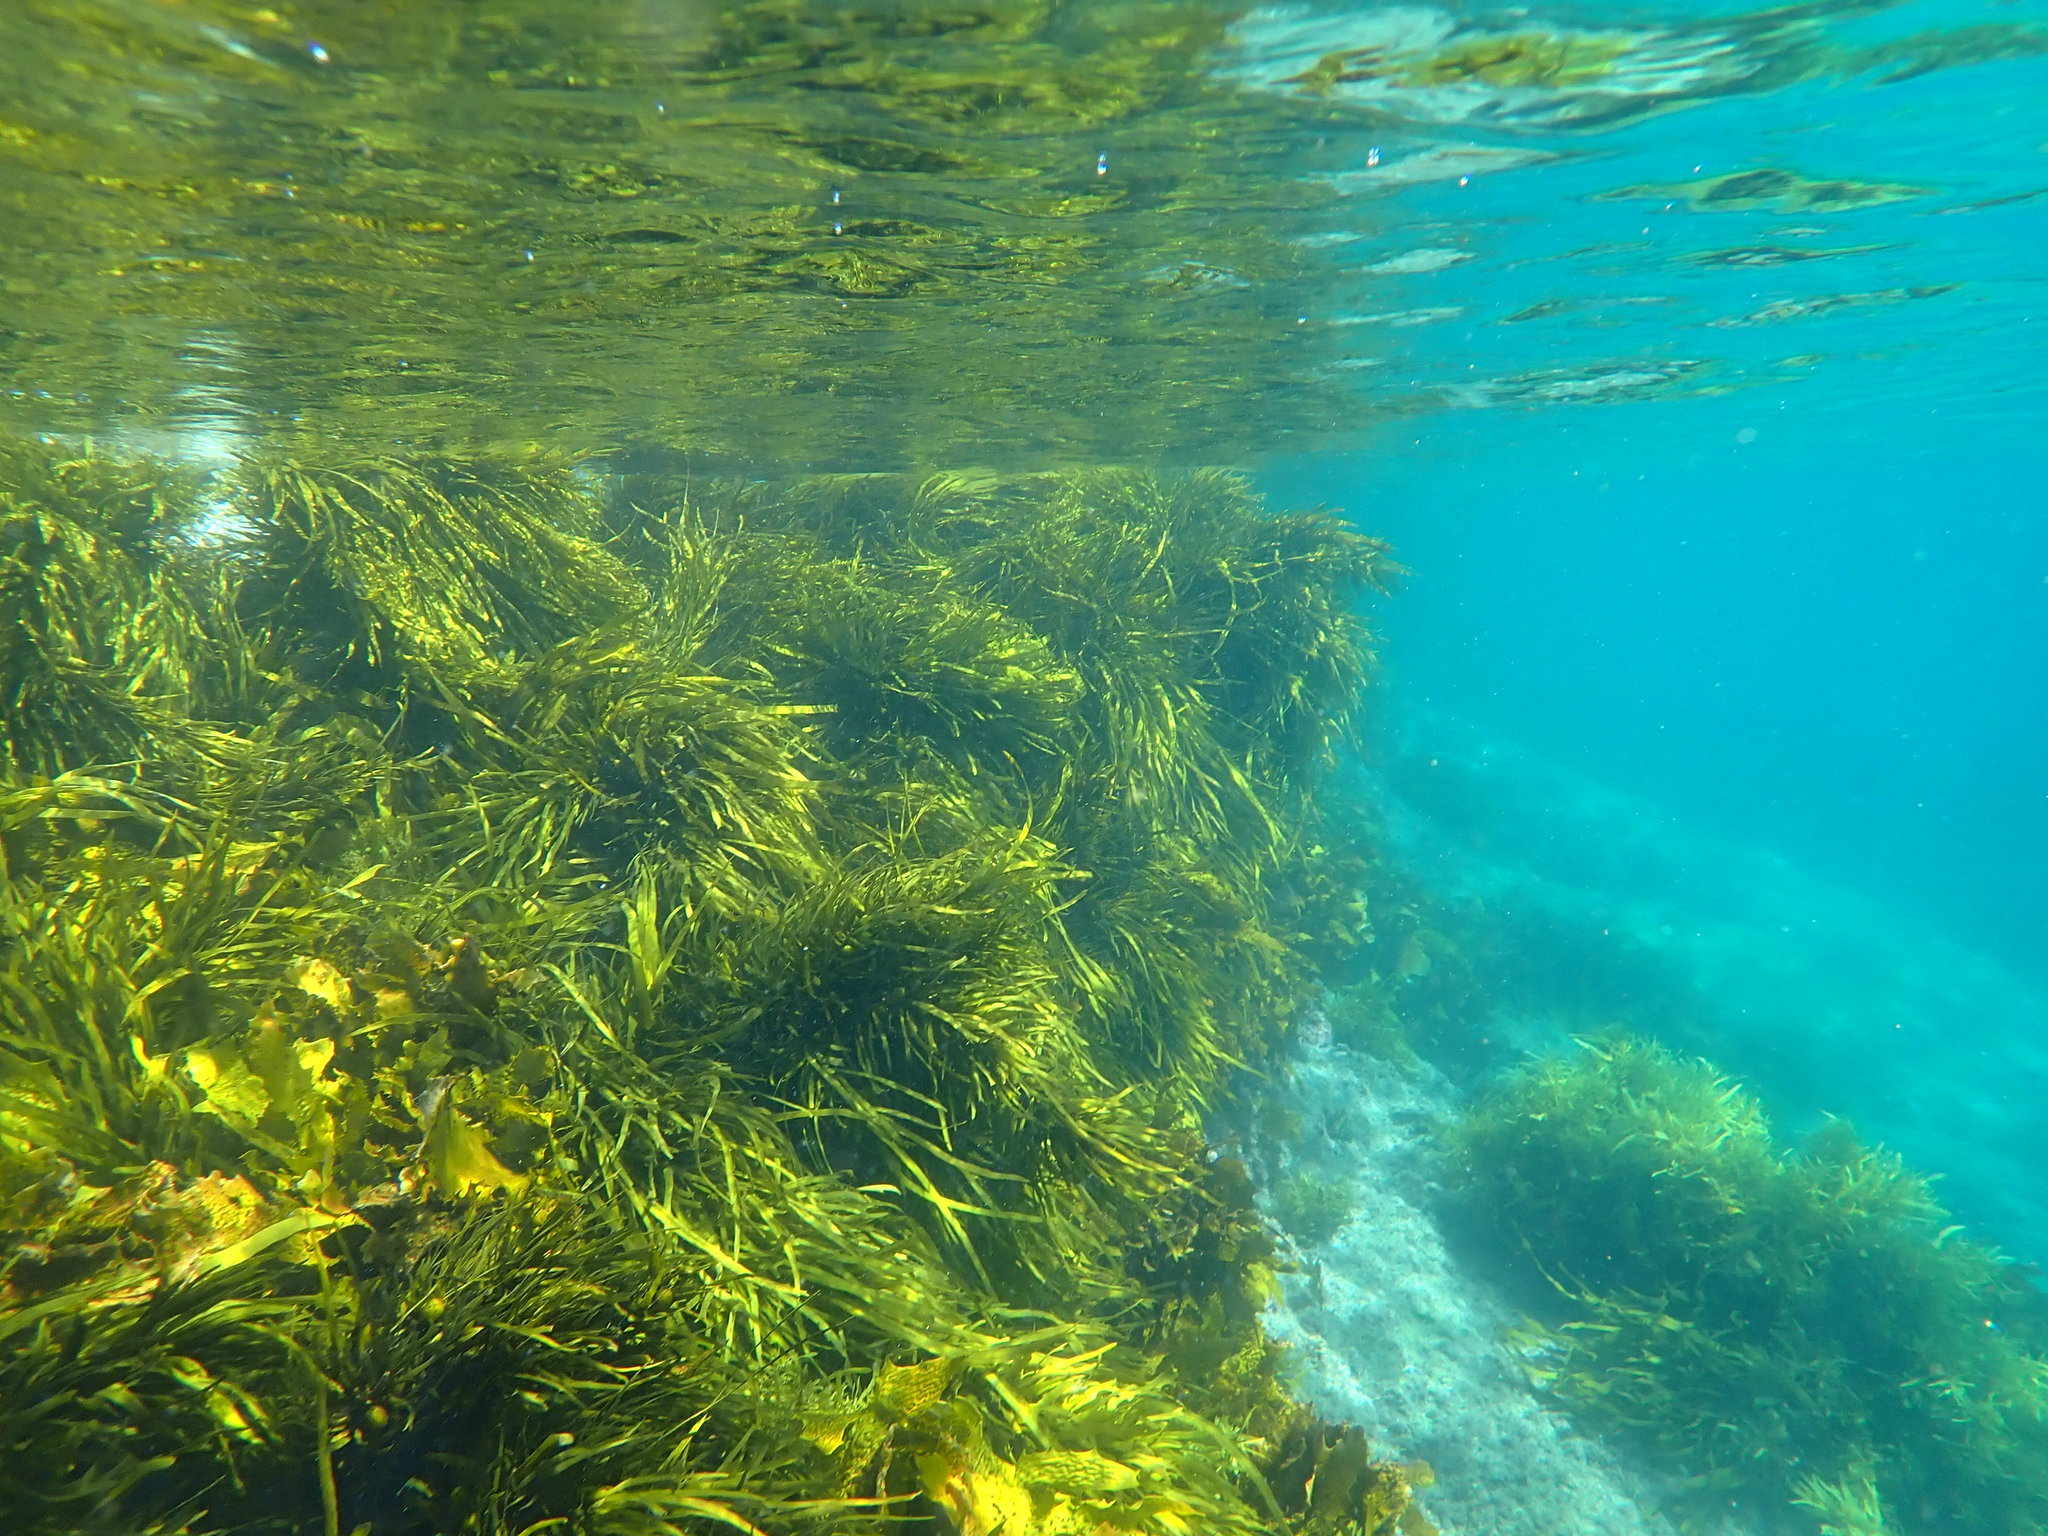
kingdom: Chromista
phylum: Ochrophyta
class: Phaeophyceae
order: Fucales
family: Seirococcaceae
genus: Phyllospora
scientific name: Phyllospora
